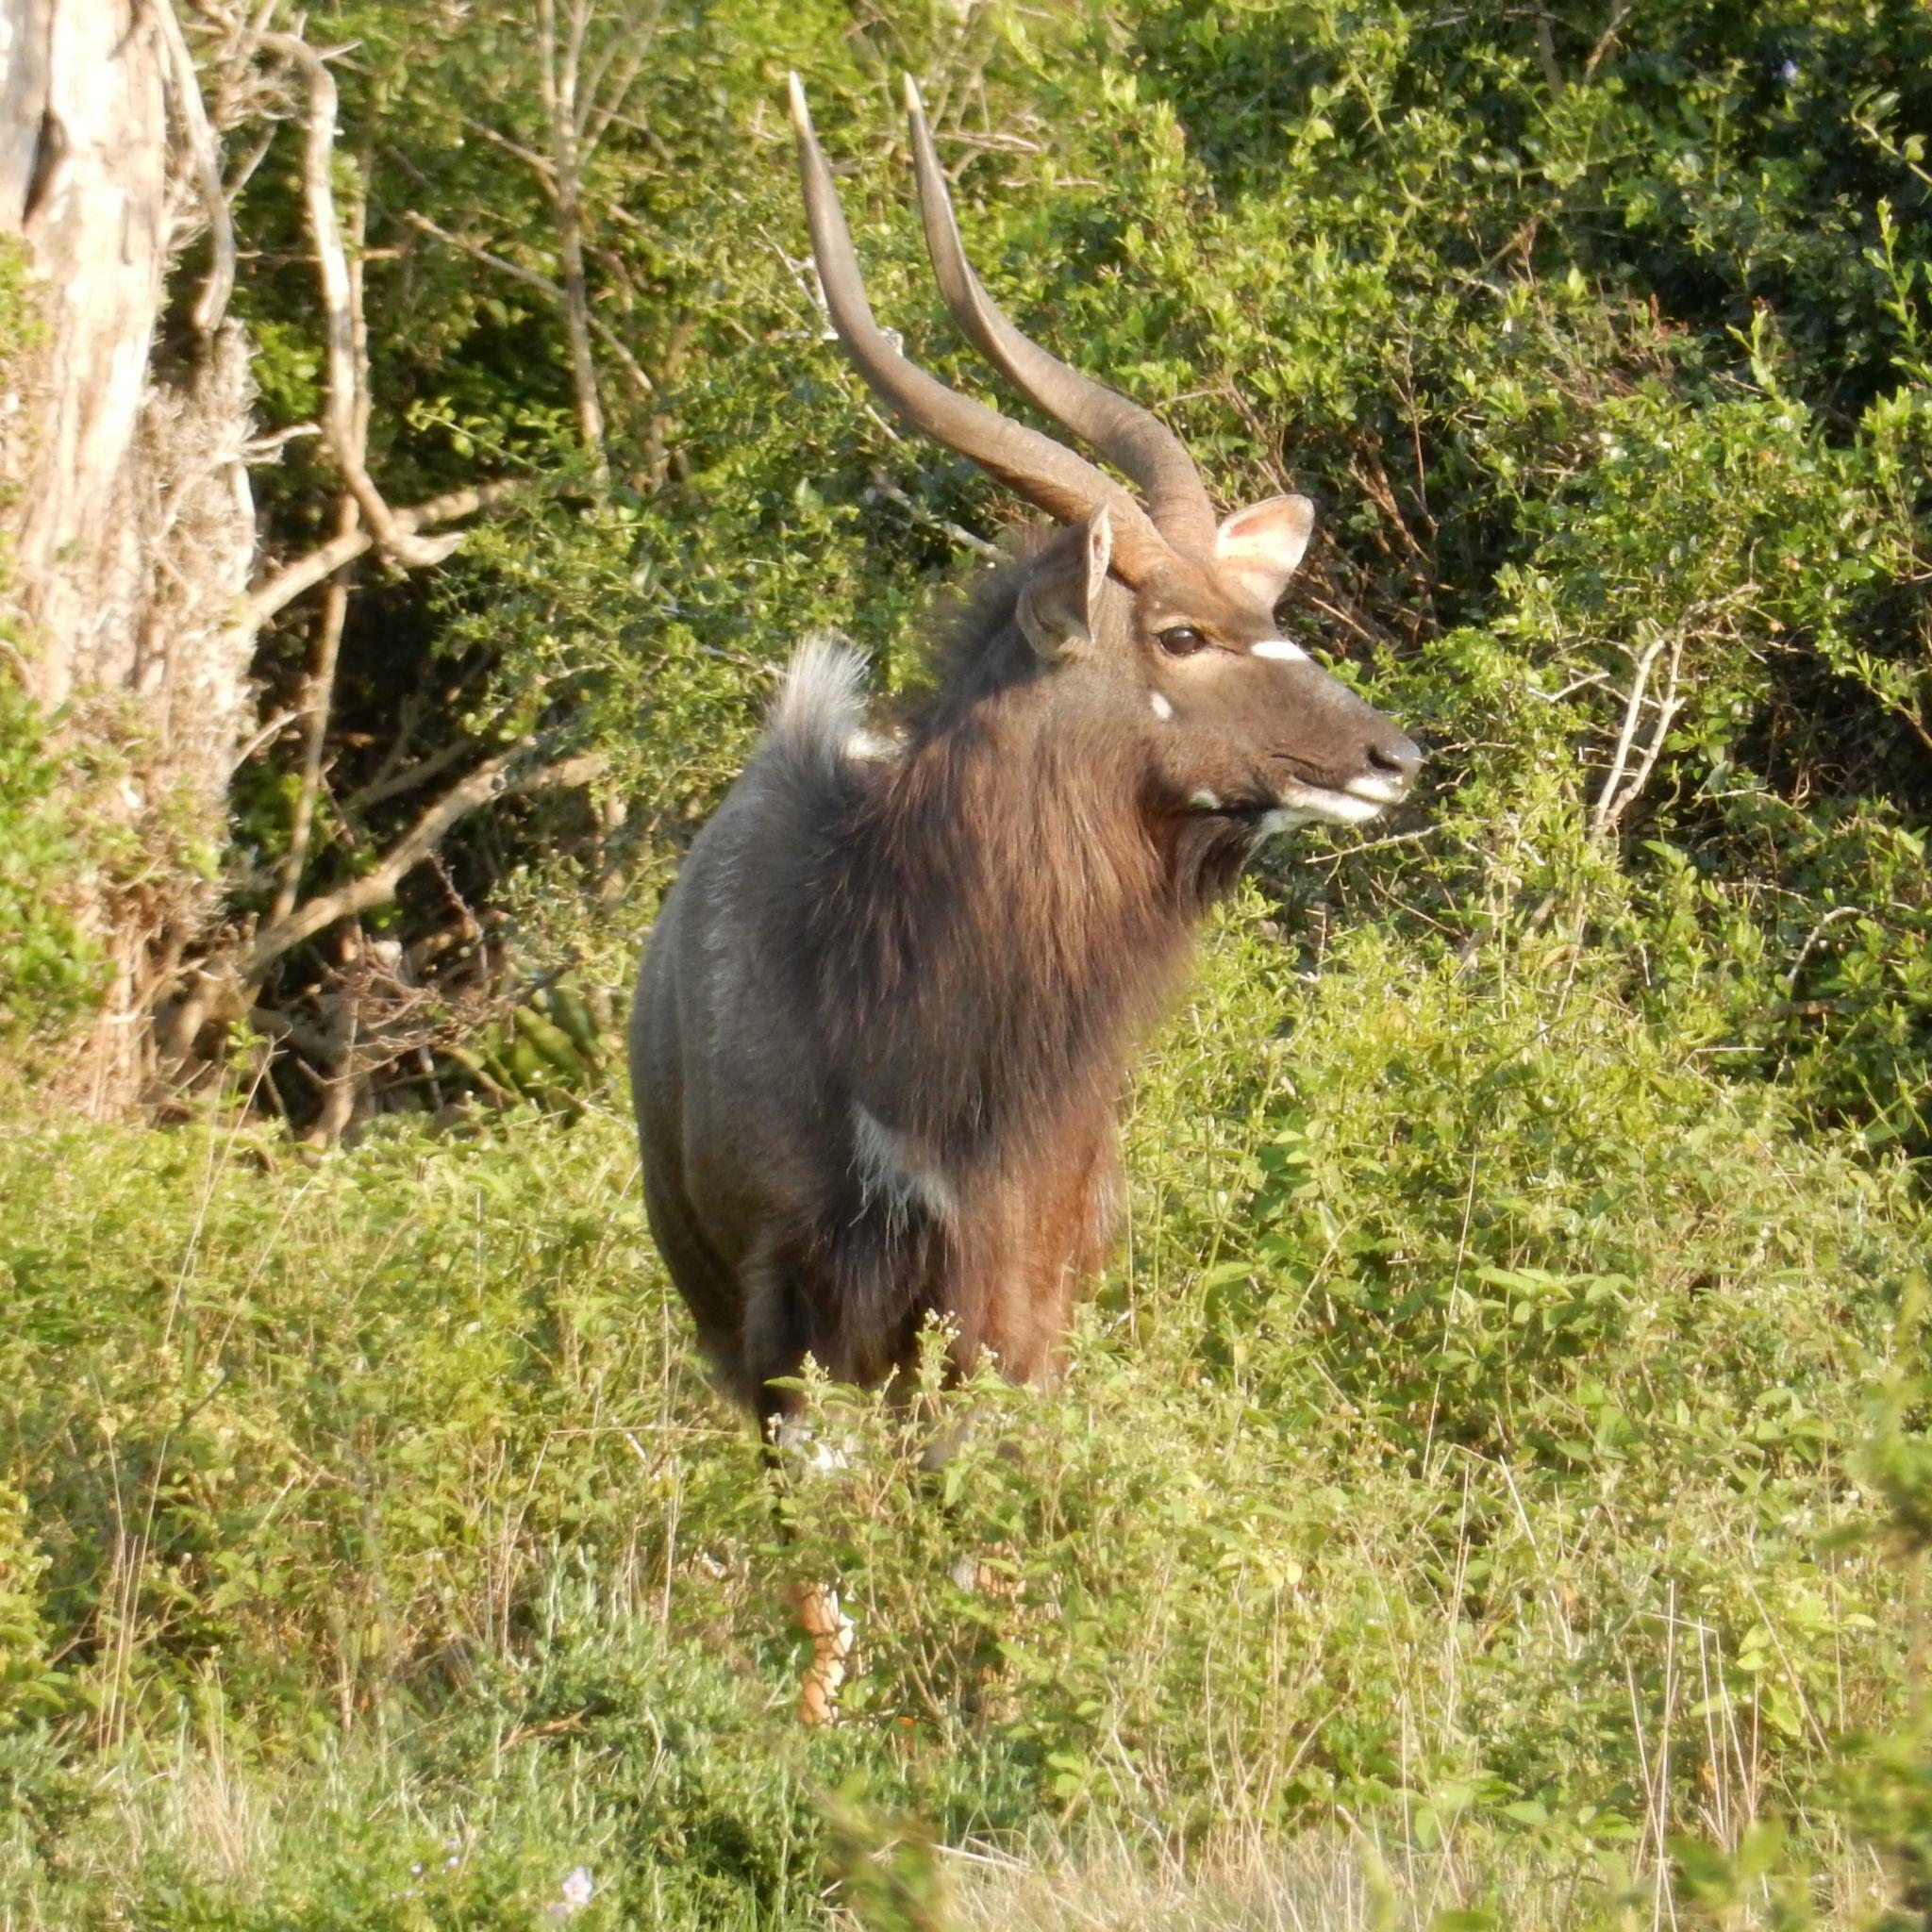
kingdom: Animalia
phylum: Chordata
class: Mammalia
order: Artiodactyla
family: Bovidae
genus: Tragelaphus
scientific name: Tragelaphus angasii
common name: Nyala
